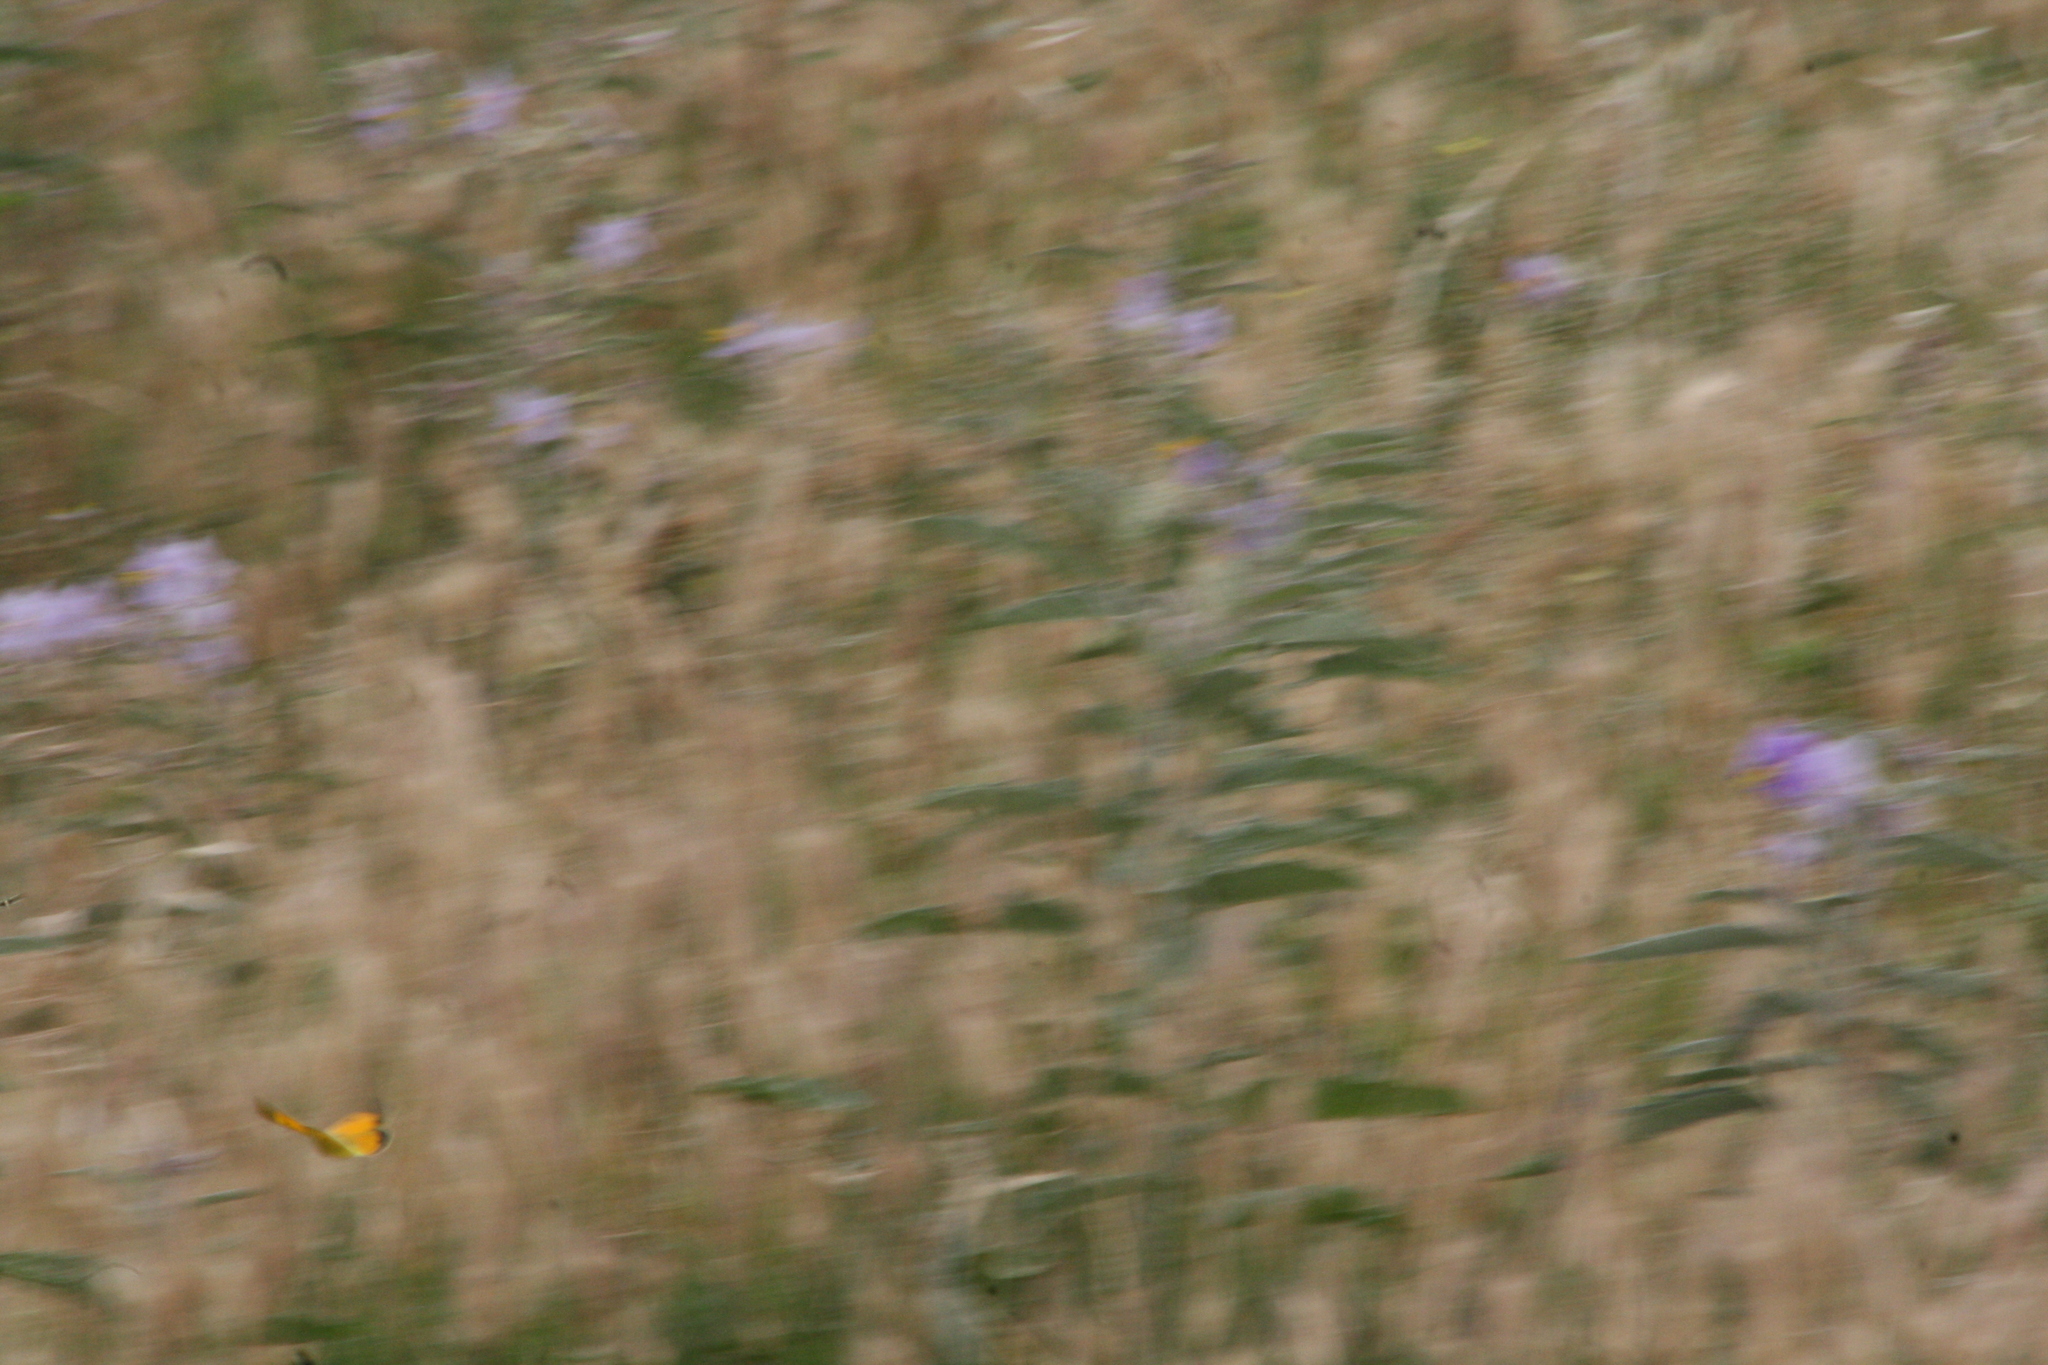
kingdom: Animalia
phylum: Arthropoda
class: Insecta
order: Lepidoptera
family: Pieridae
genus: Colias
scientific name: Colias croceus
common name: Clouded yellow
